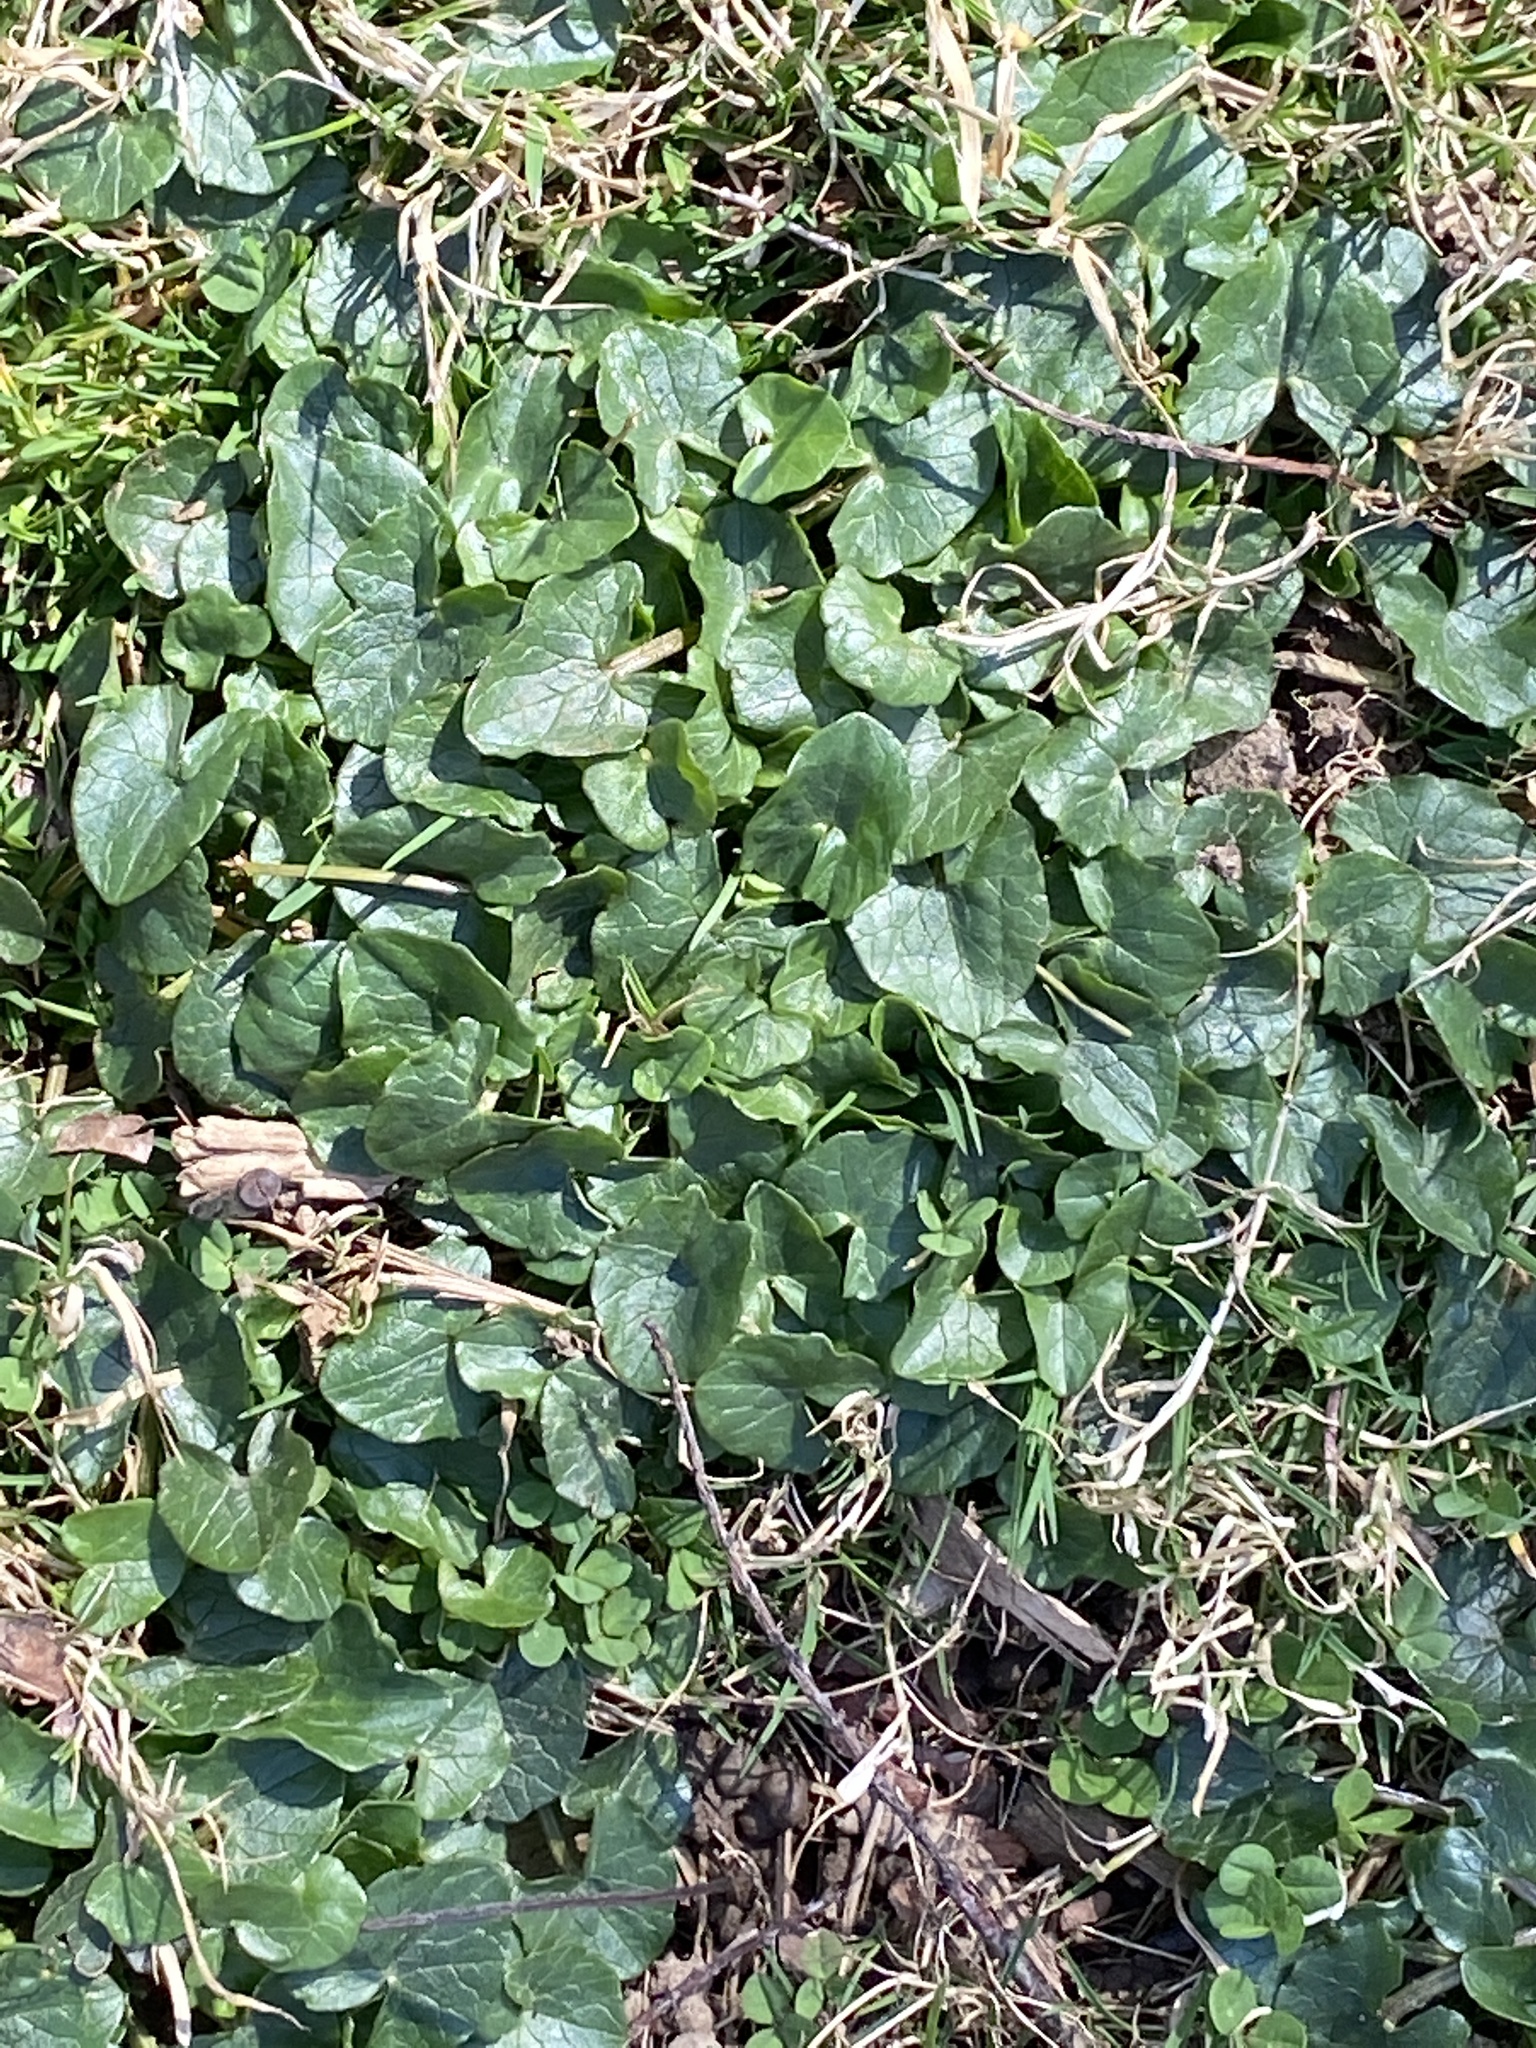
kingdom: Plantae
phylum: Tracheophyta
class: Magnoliopsida
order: Ranunculales
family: Ranunculaceae
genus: Ficaria
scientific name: Ficaria verna
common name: Lesser celandine
